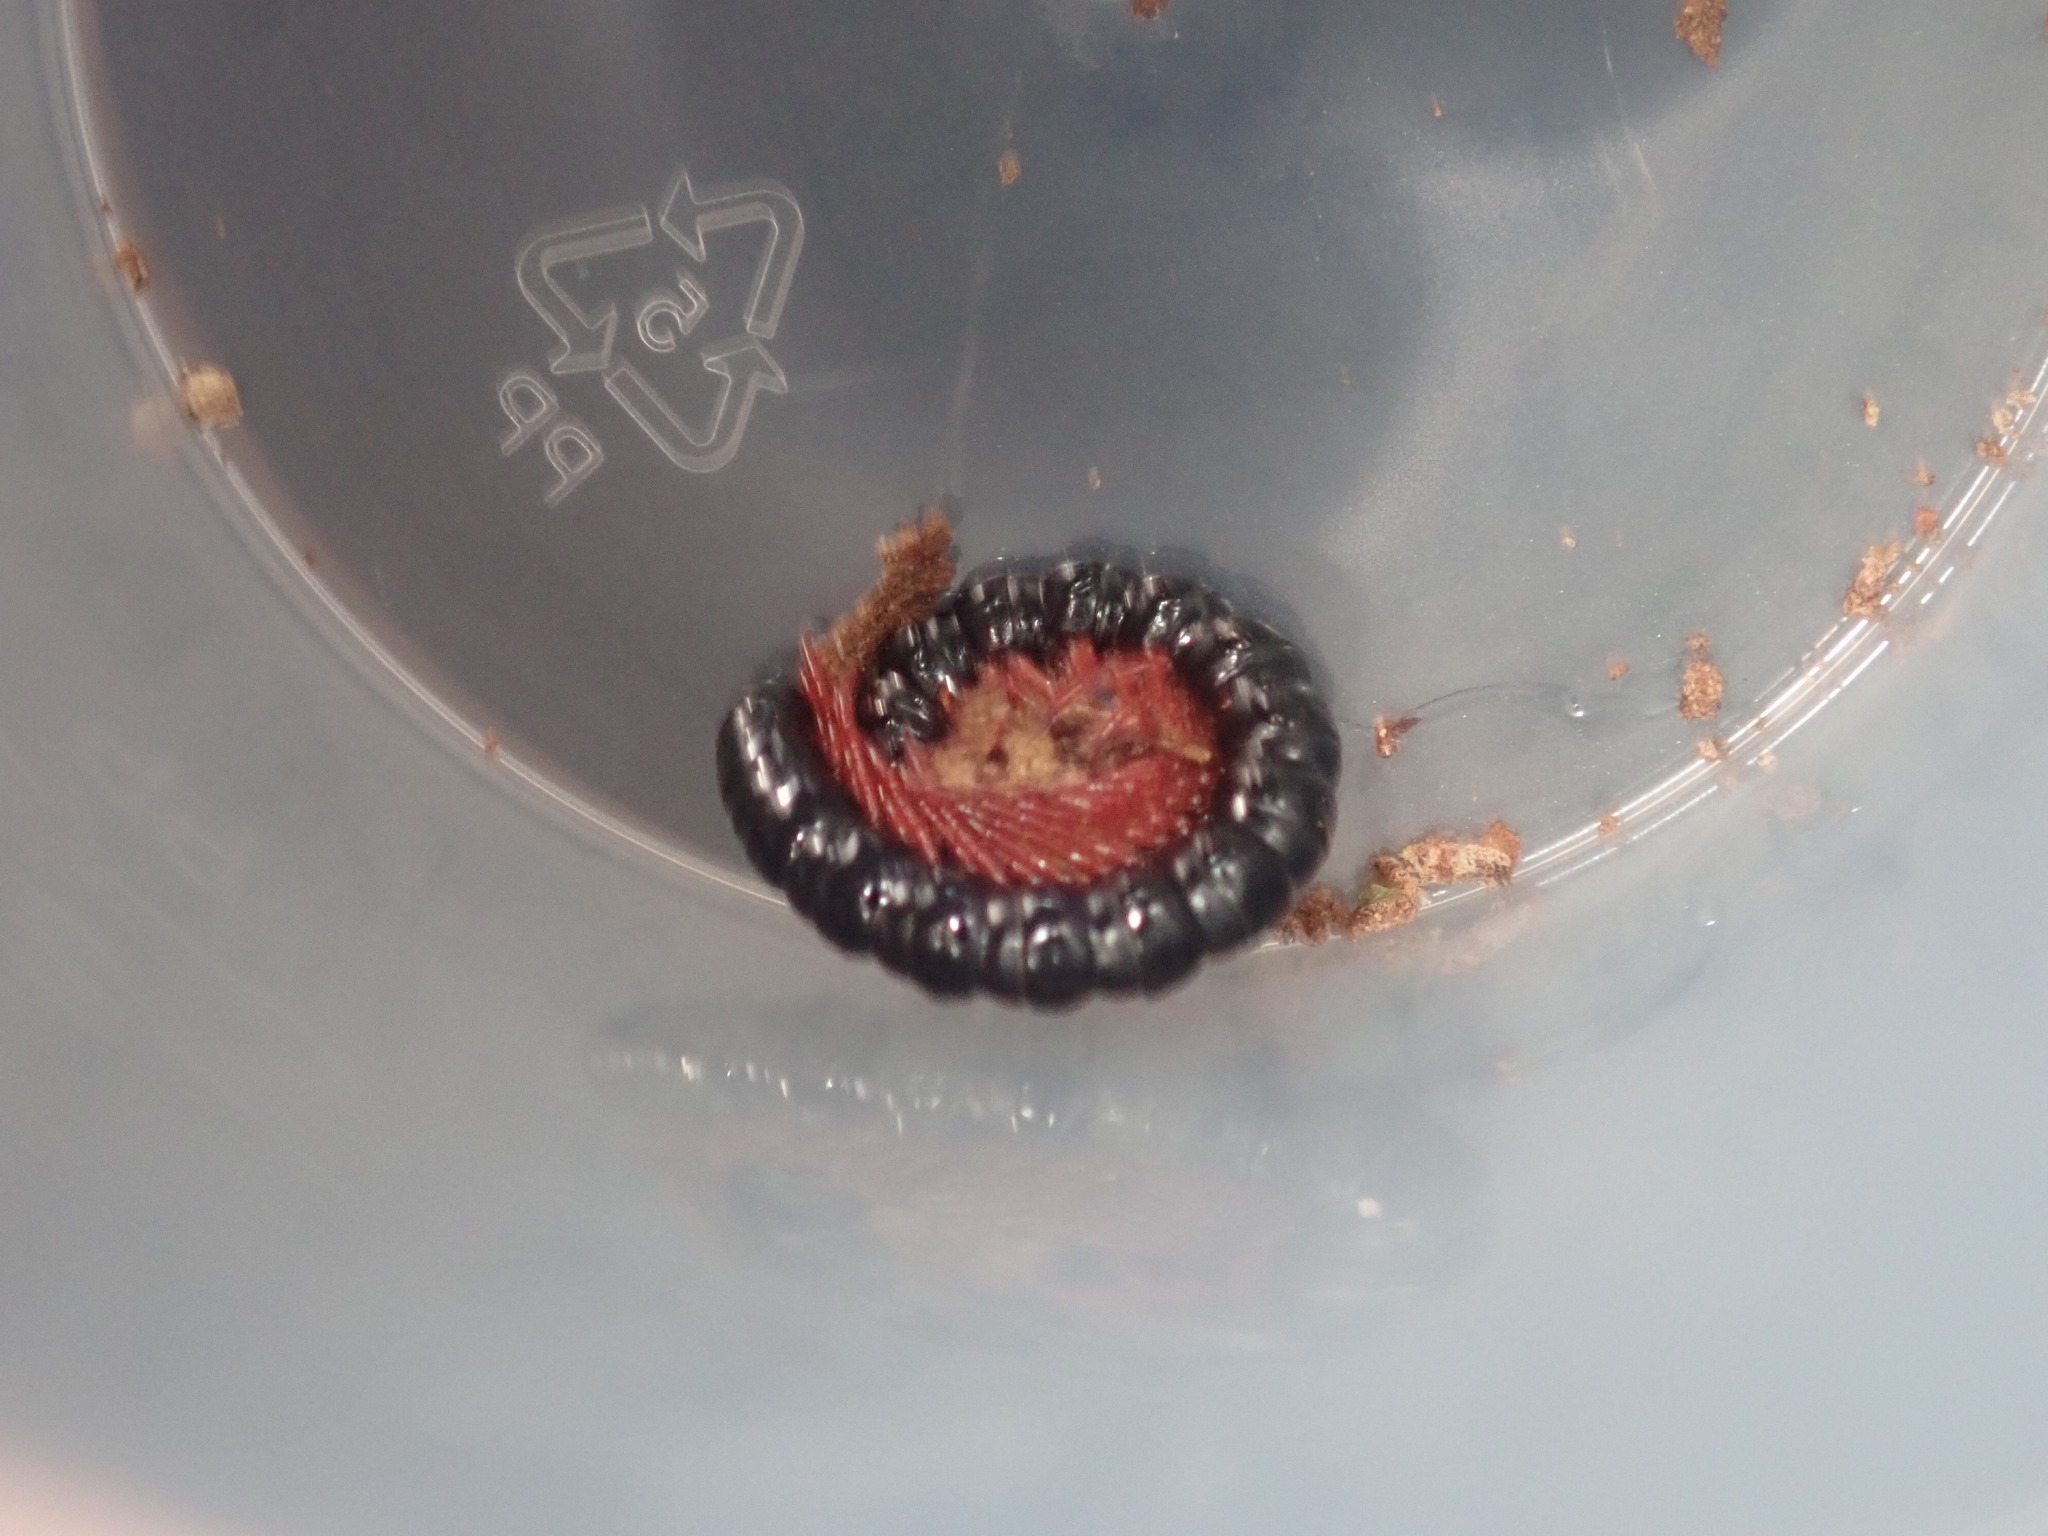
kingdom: Animalia
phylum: Arthropoda
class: Diplopoda
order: Polydesmida
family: Paradoxosomatidae
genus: Heterocladosoma
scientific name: Heterocladosoma
